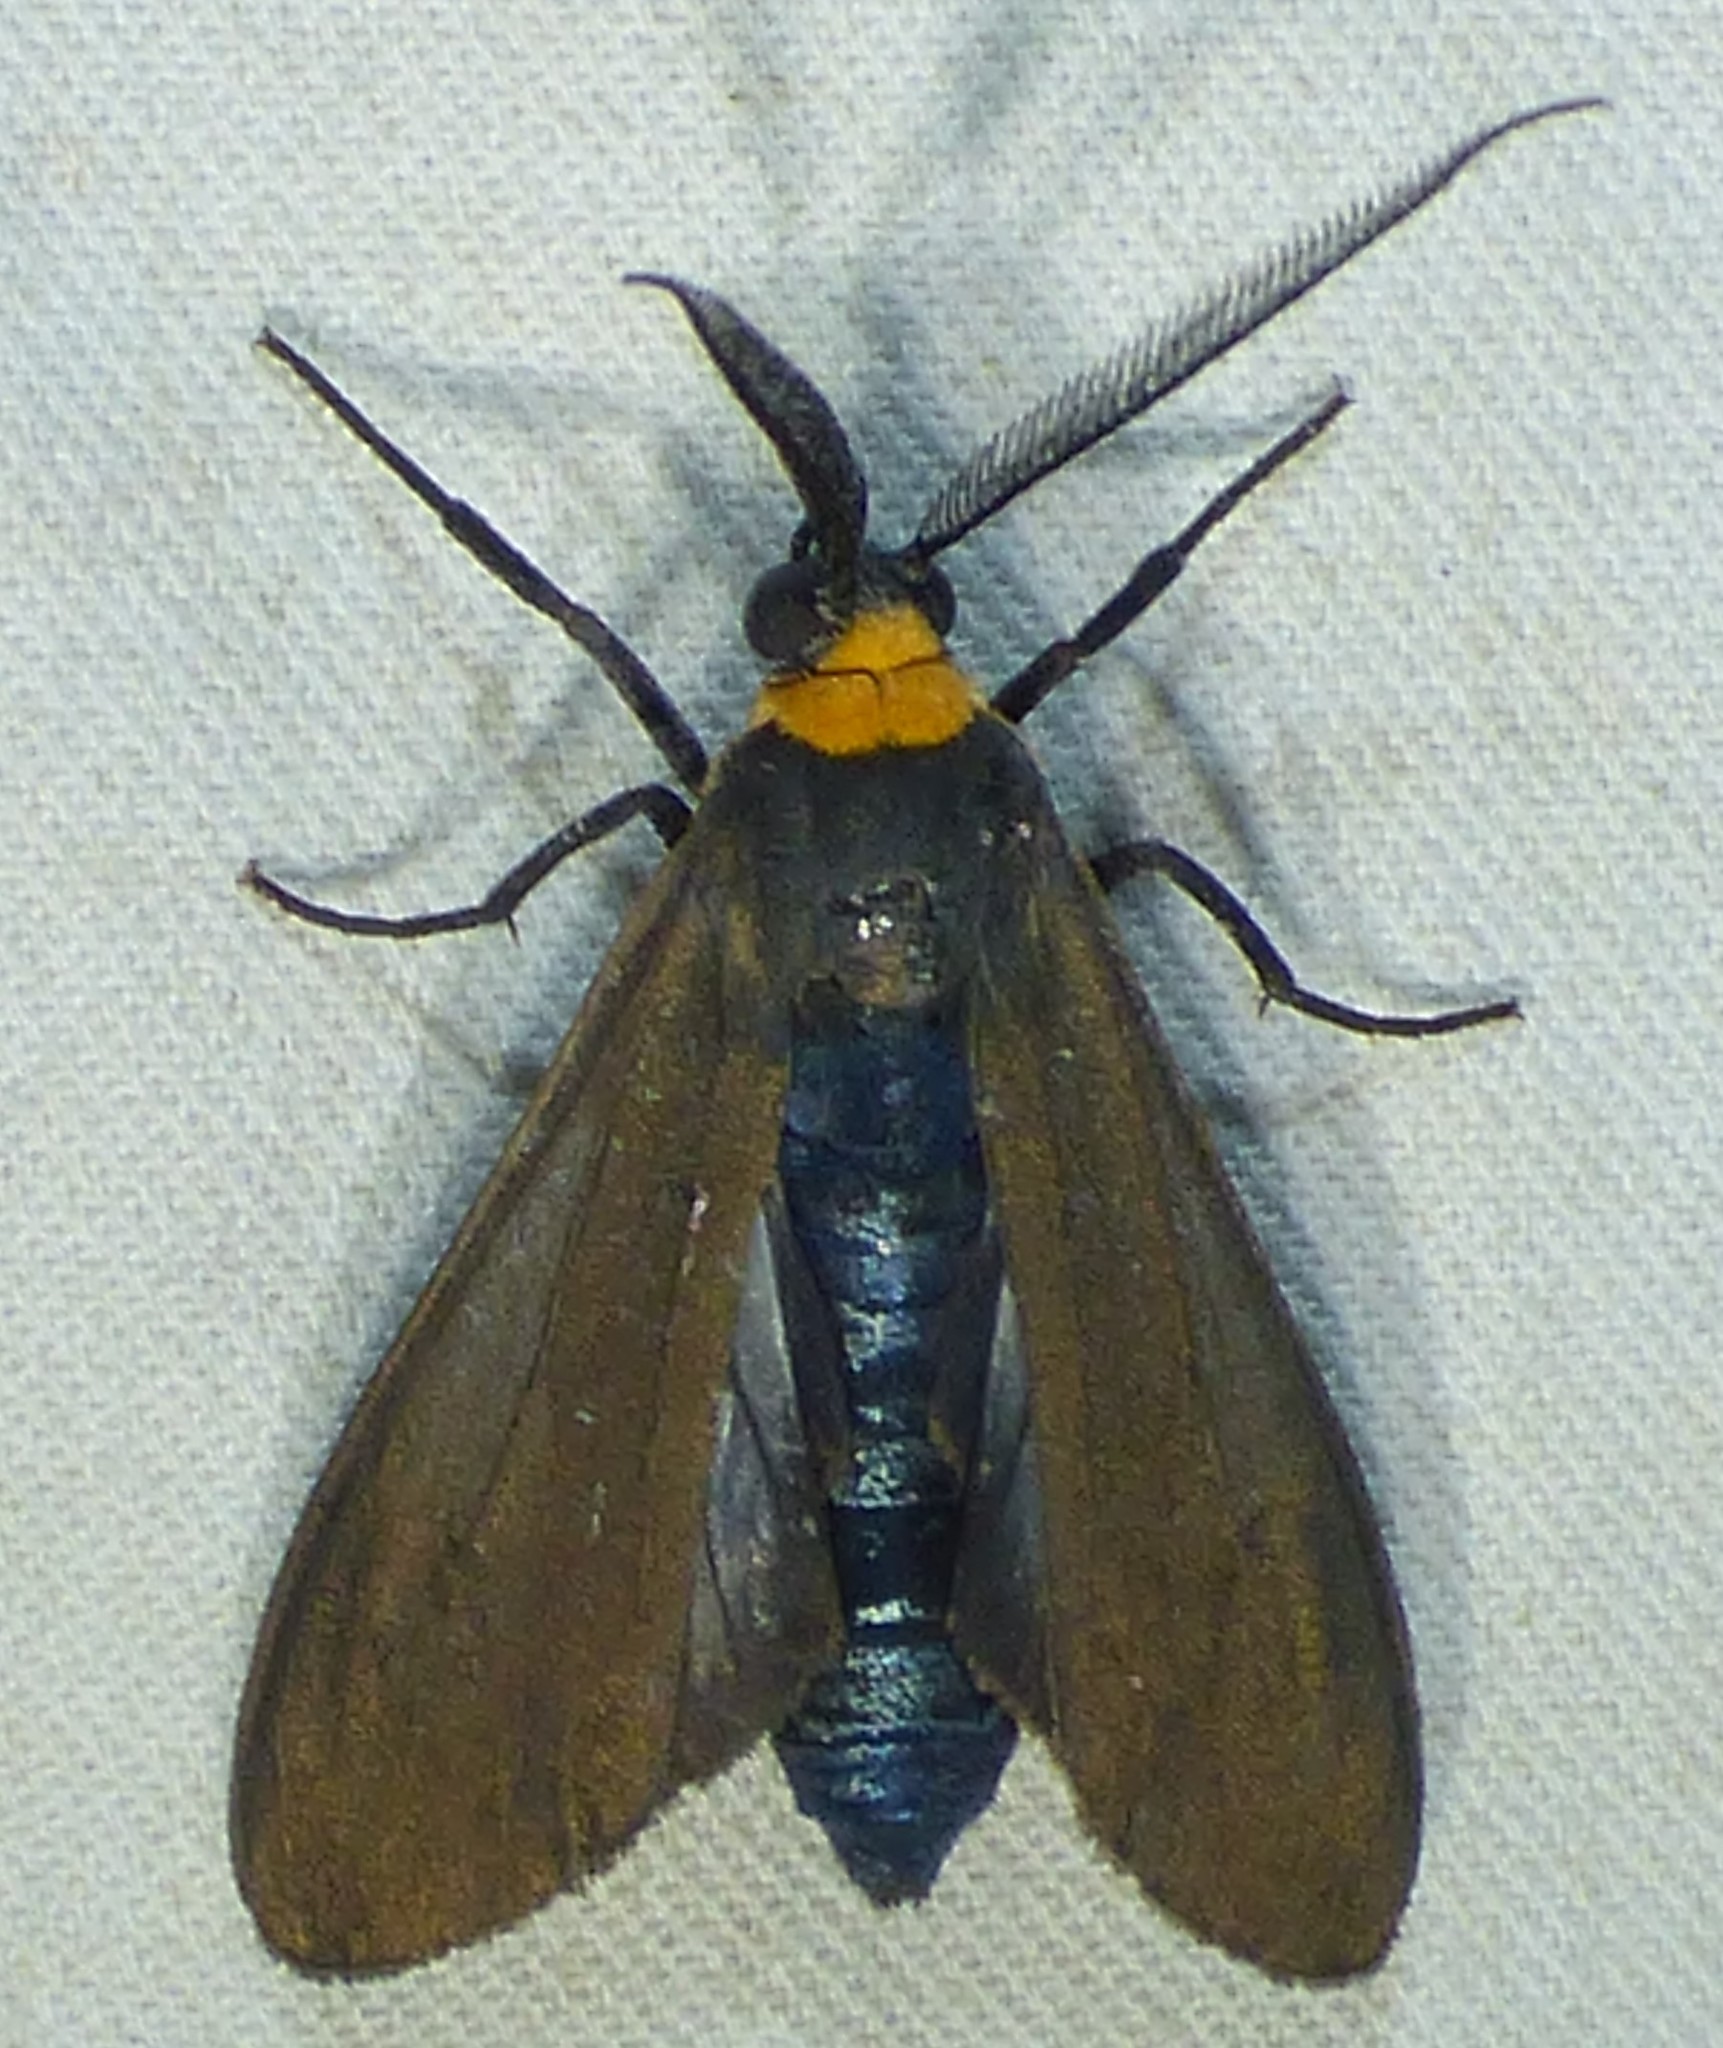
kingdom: Animalia
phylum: Arthropoda
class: Insecta
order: Lepidoptera
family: Erebidae
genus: Cisseps
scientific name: Cisseps fulvicollis
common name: Yellow-collared scape moth
